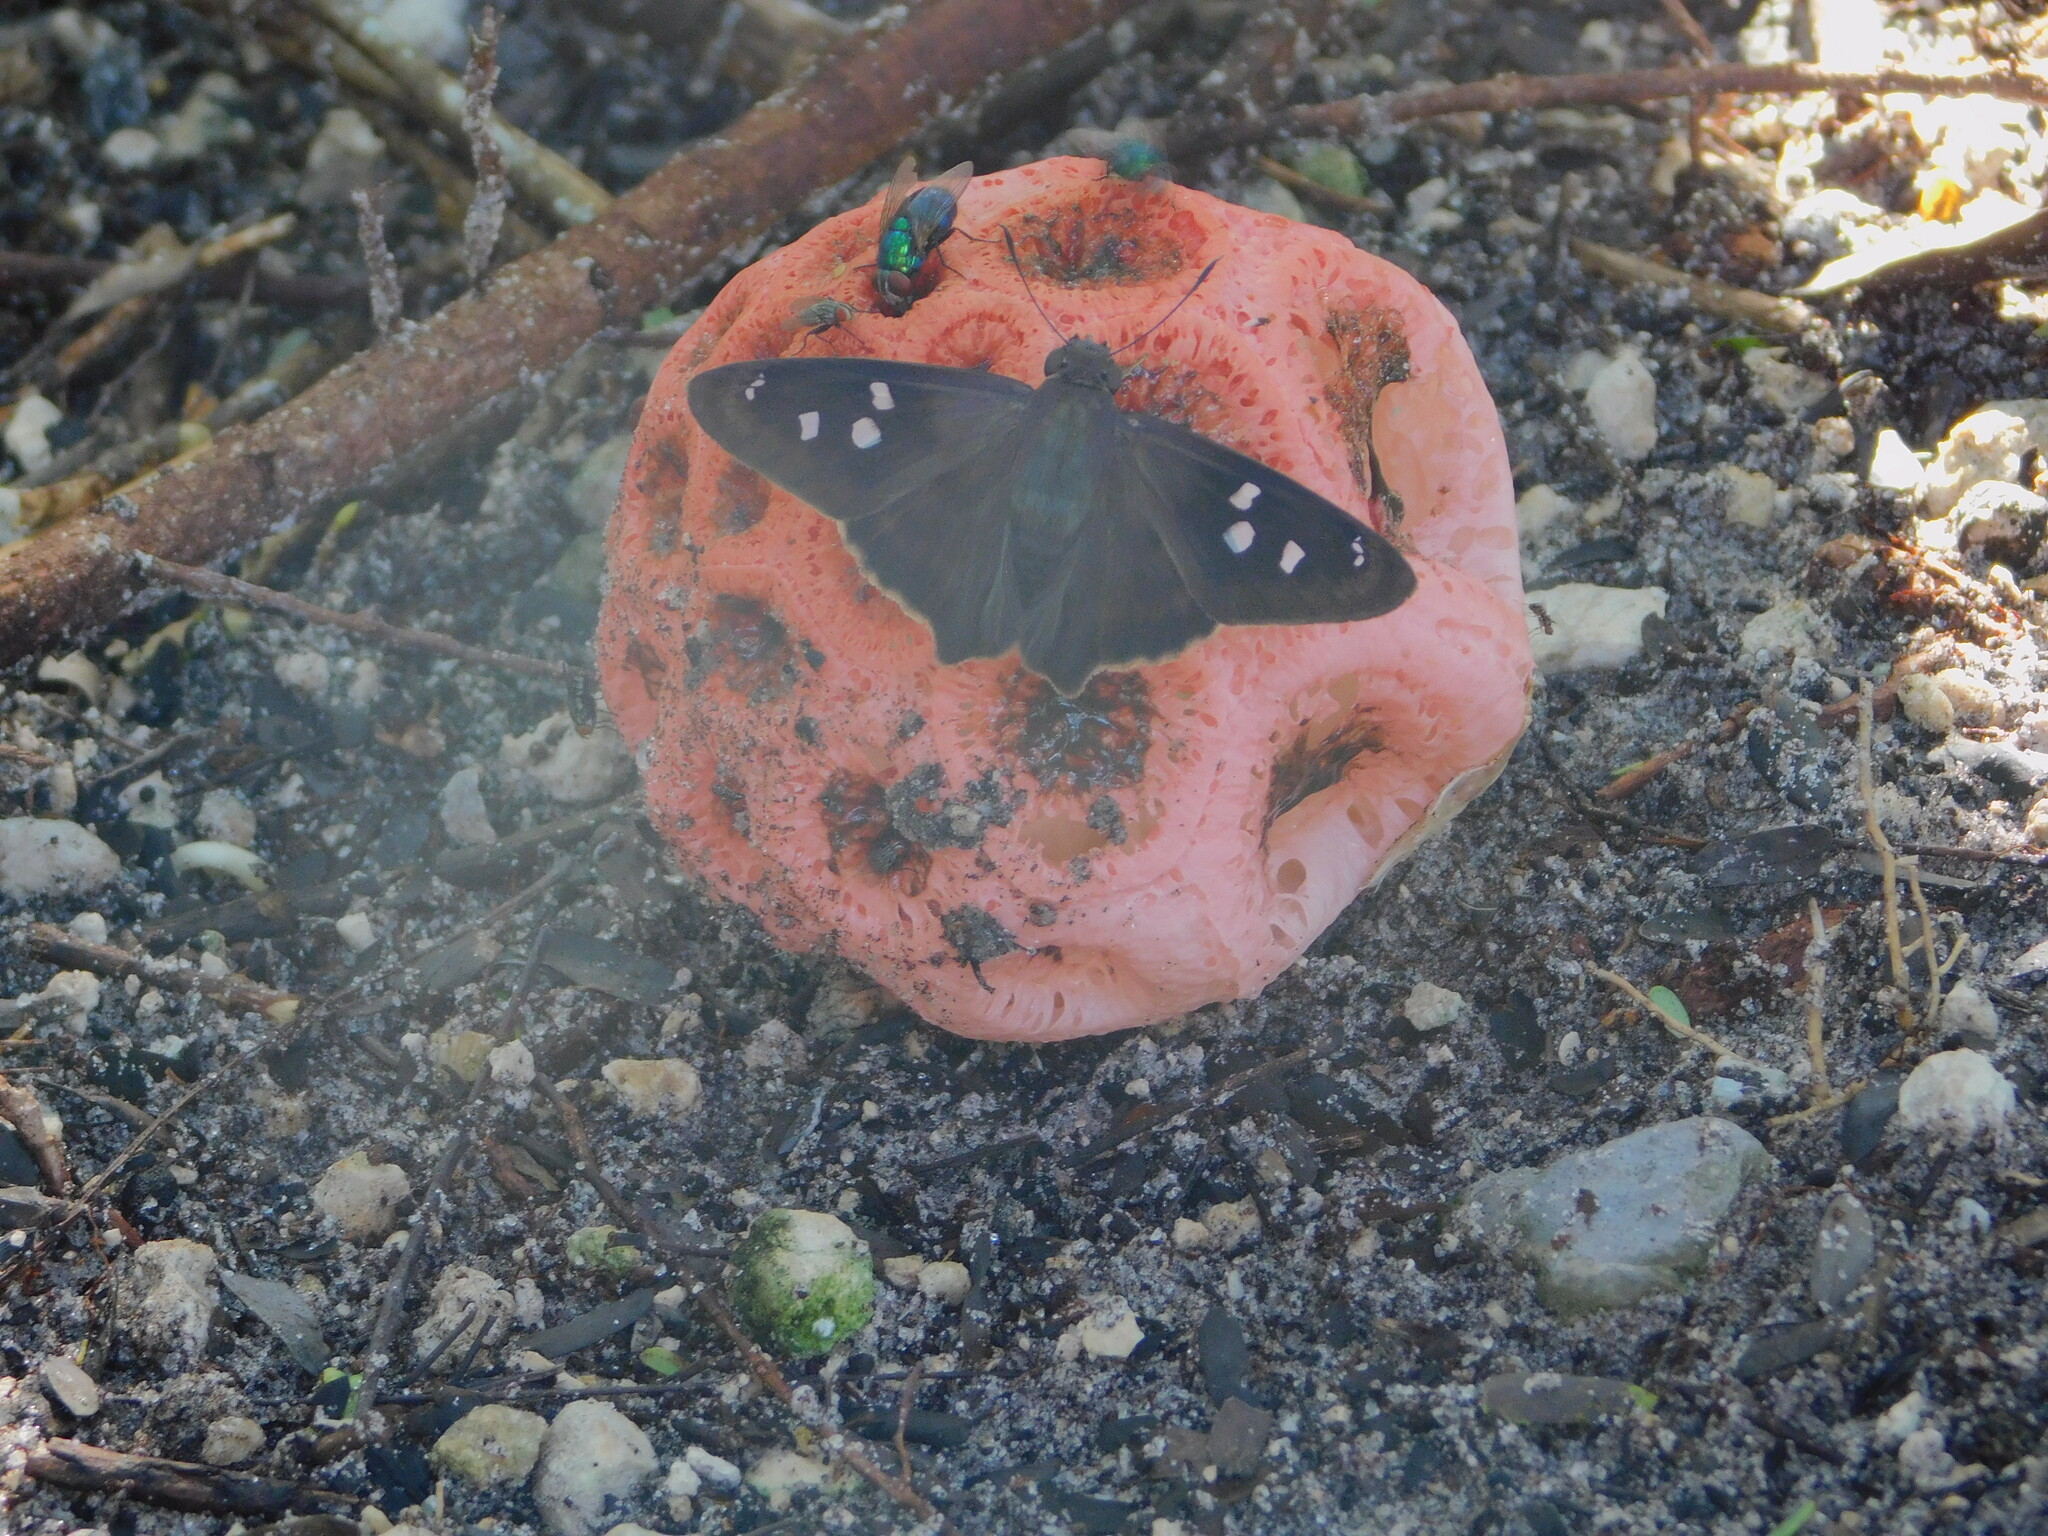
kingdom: Animalia
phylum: Arthropoda
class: Insecta
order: Lepidoptera
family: Hesperiidae
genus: Polygonus
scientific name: Polygonus leo
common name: Hammoch skipper
